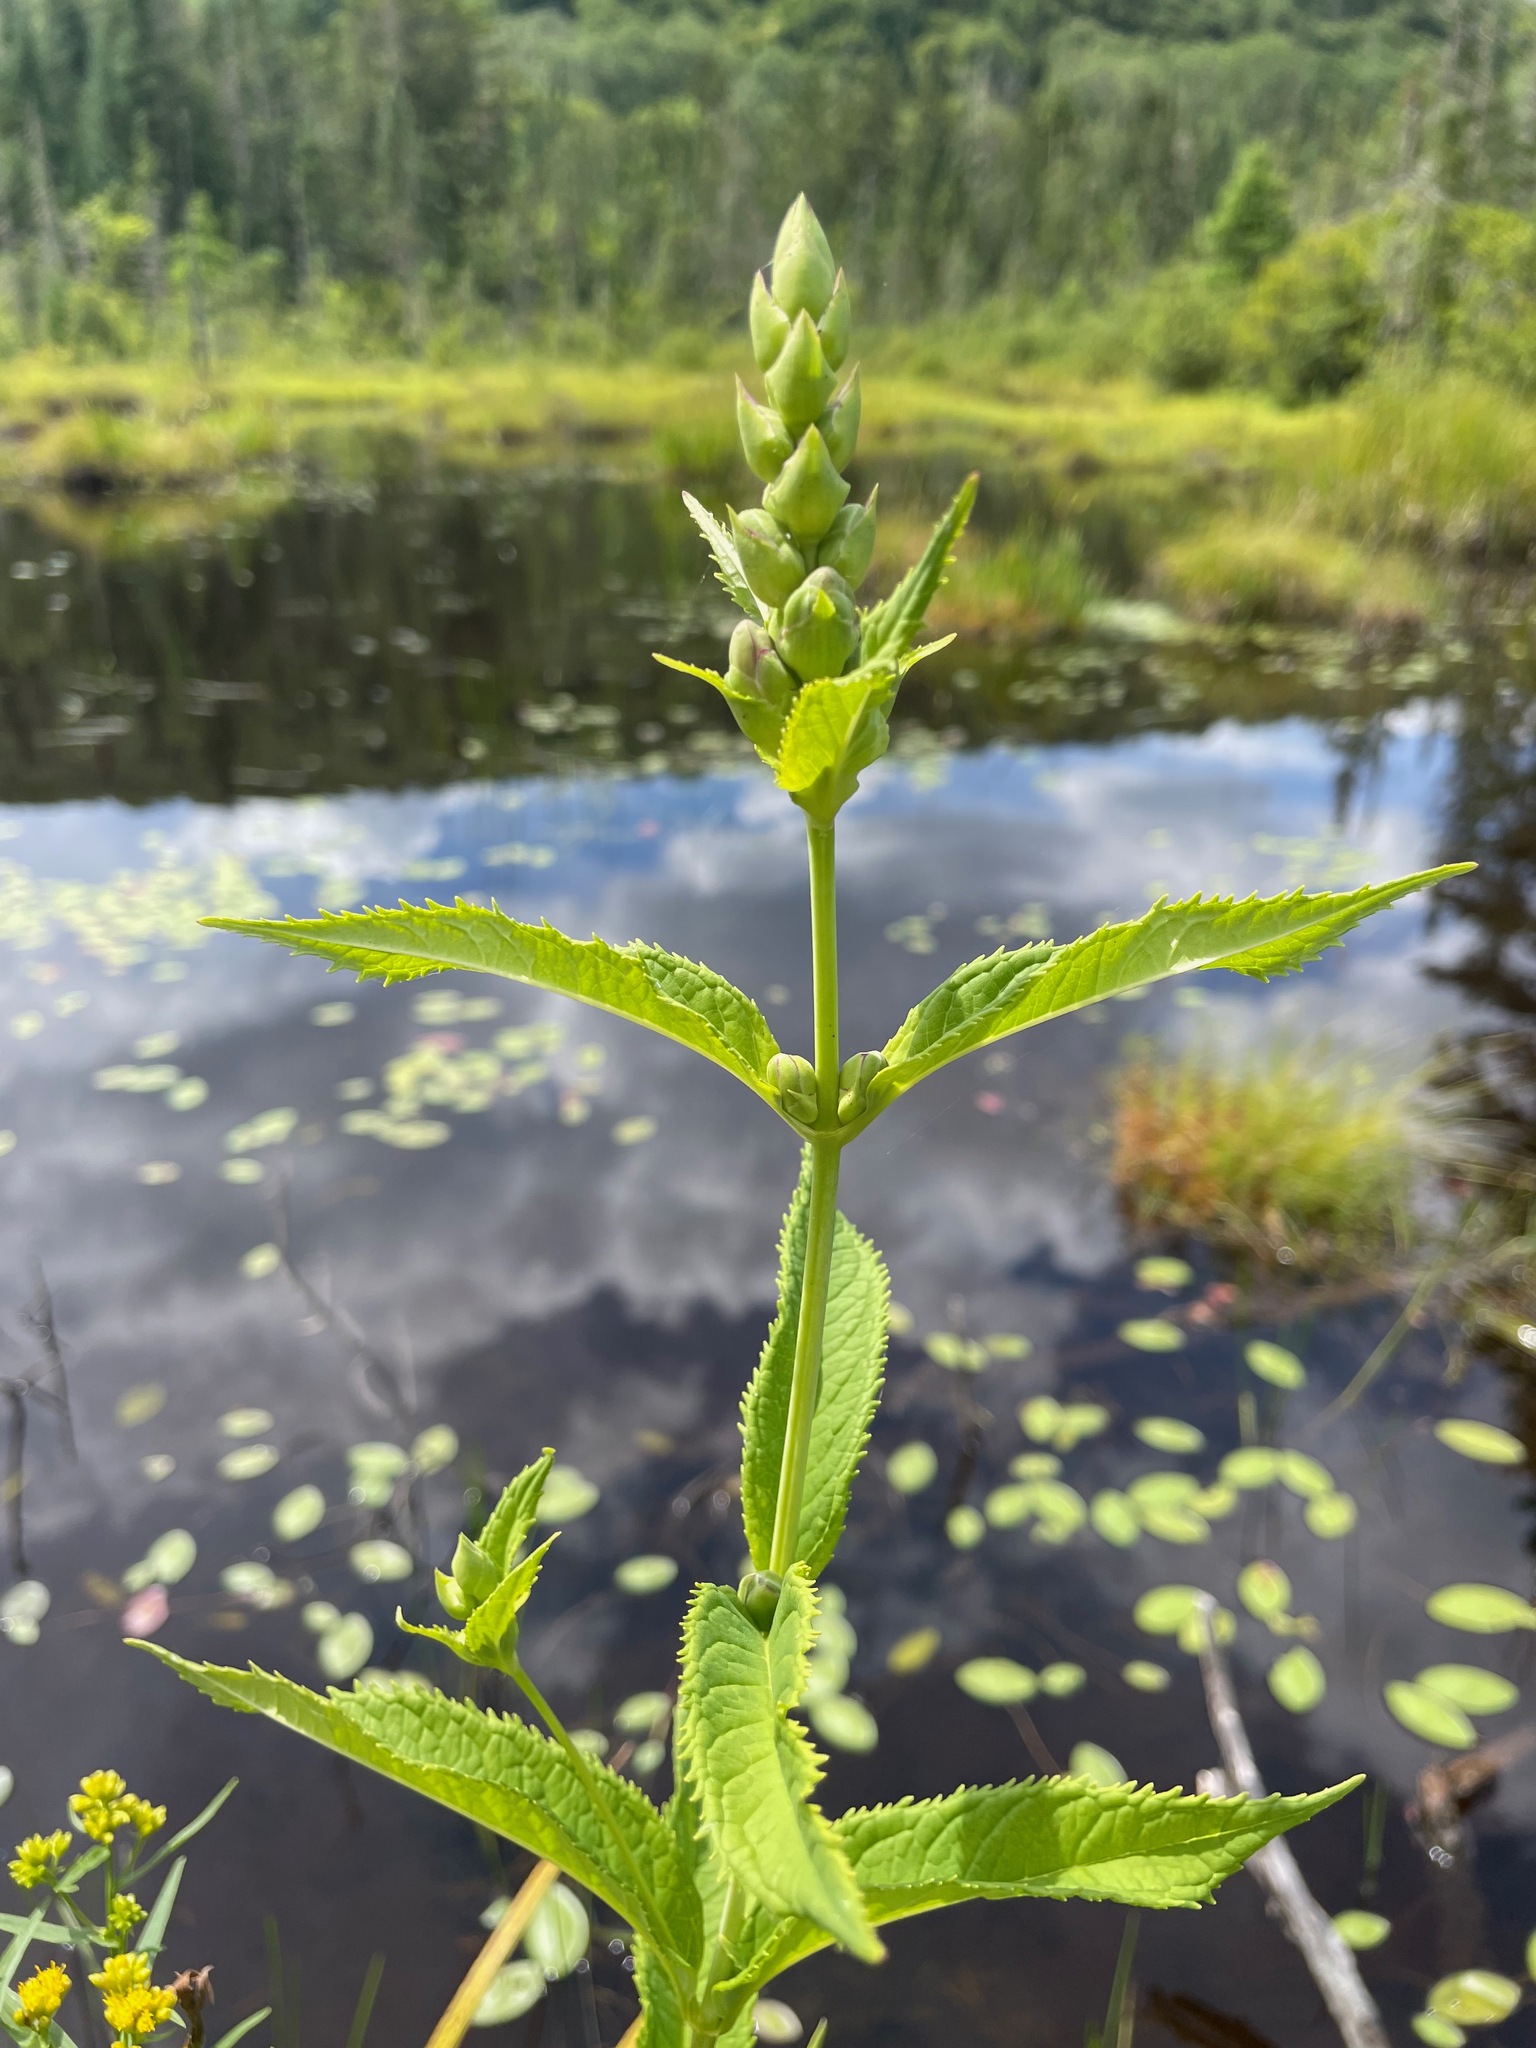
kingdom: Plantae
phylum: Tracheophyta
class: Magnoliopsida
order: Lamiales
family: Plantaginaceae
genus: Chelone
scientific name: Chelone glabra
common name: Snakehead
